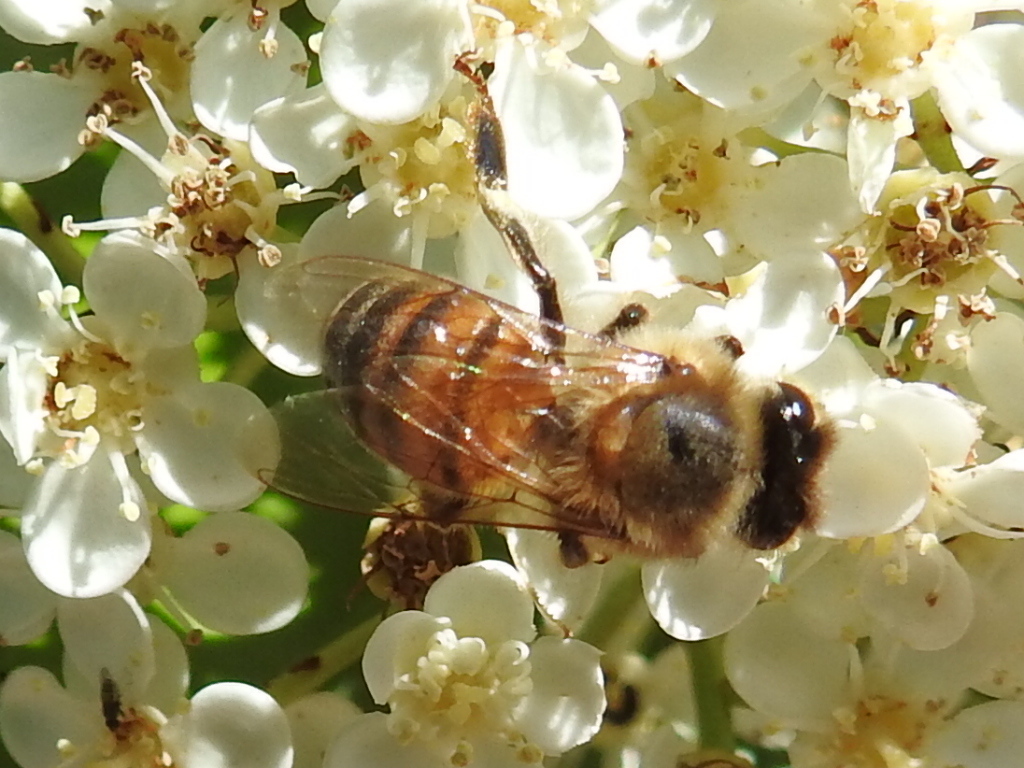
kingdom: Animalia
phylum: Arthropoda
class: Insecta
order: Hymenoptera
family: Apidae
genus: Apis
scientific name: Apis mellifera
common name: Honey bee
